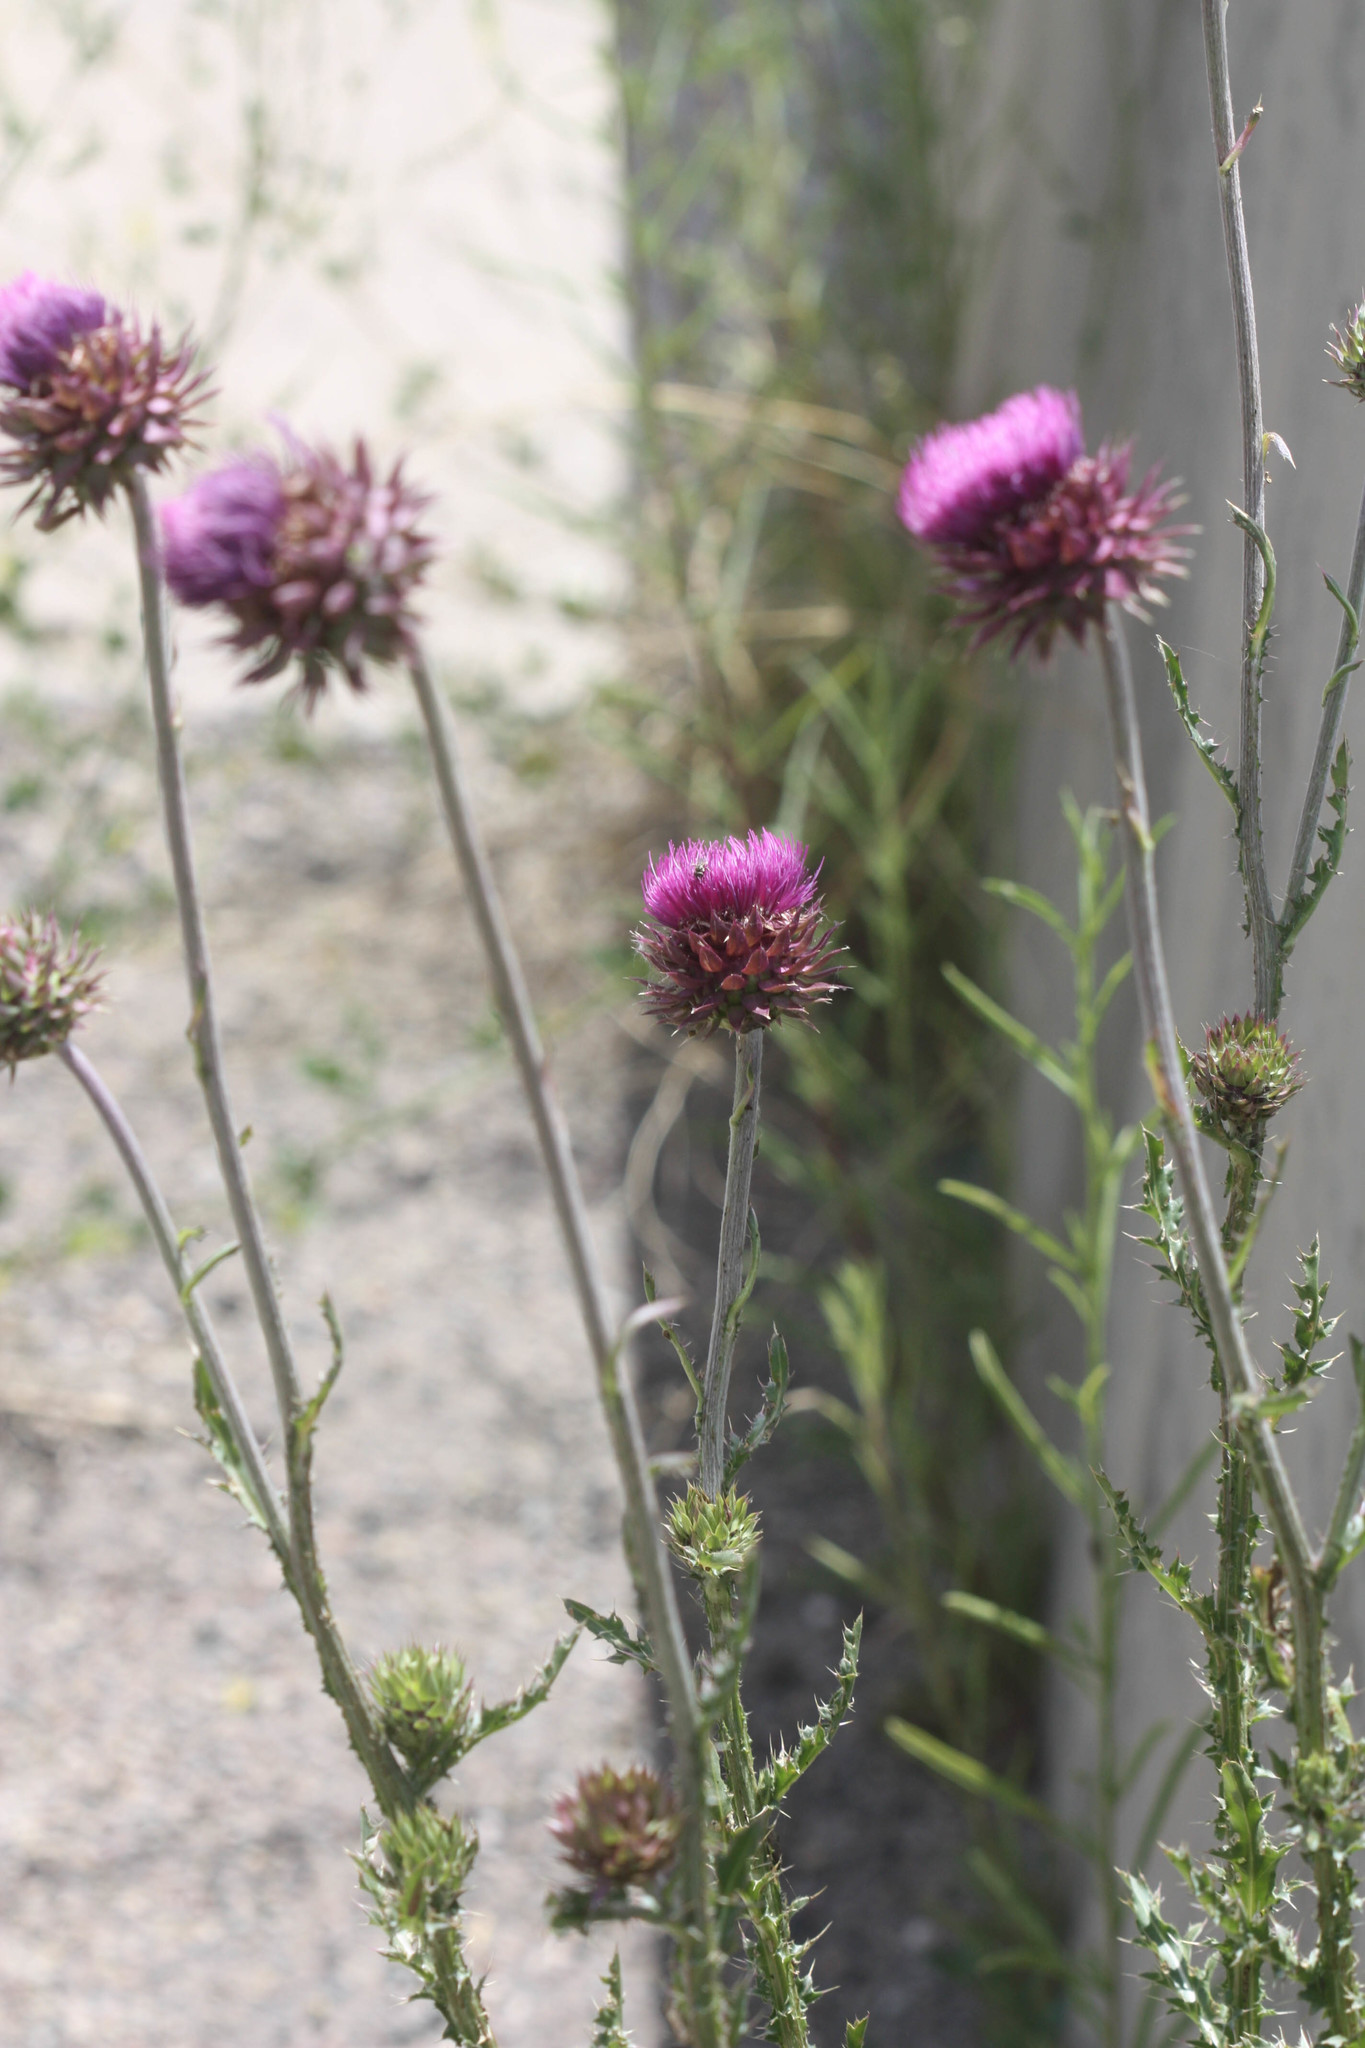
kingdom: Plantae
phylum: Tracheophyta
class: Magnoliopsida
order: Asterales
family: Asteraceae
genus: Carduus
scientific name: Carduus nutans
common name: Musk thistle
